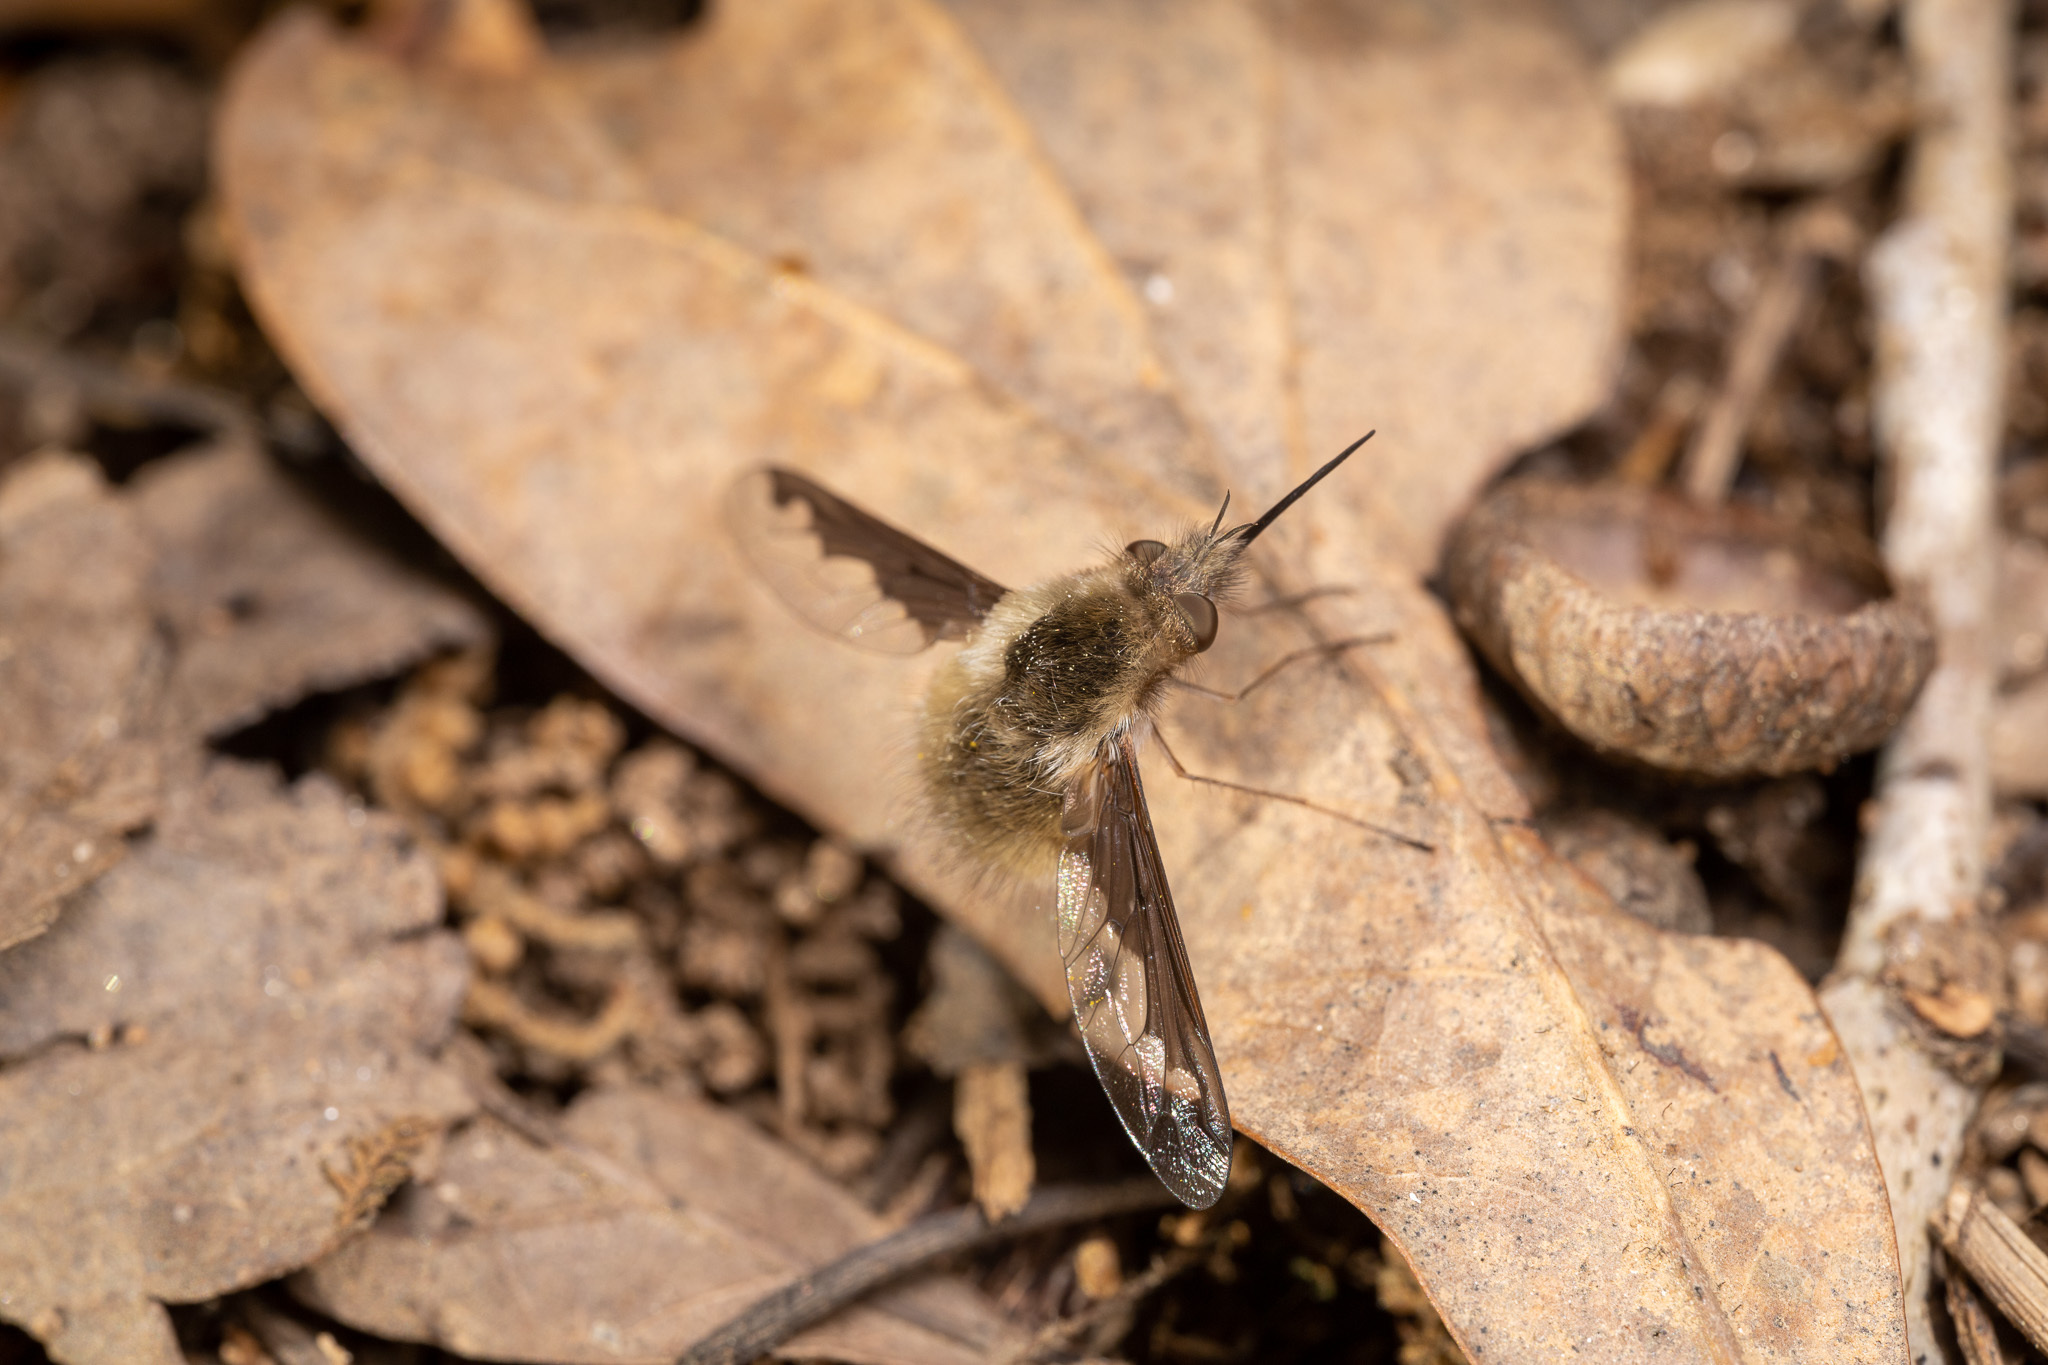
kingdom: Animalia
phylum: Arthropoda
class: Insecta
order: Diptera
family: Bombyliidae
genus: Bombylius
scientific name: Bombylius major
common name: Bee fly
